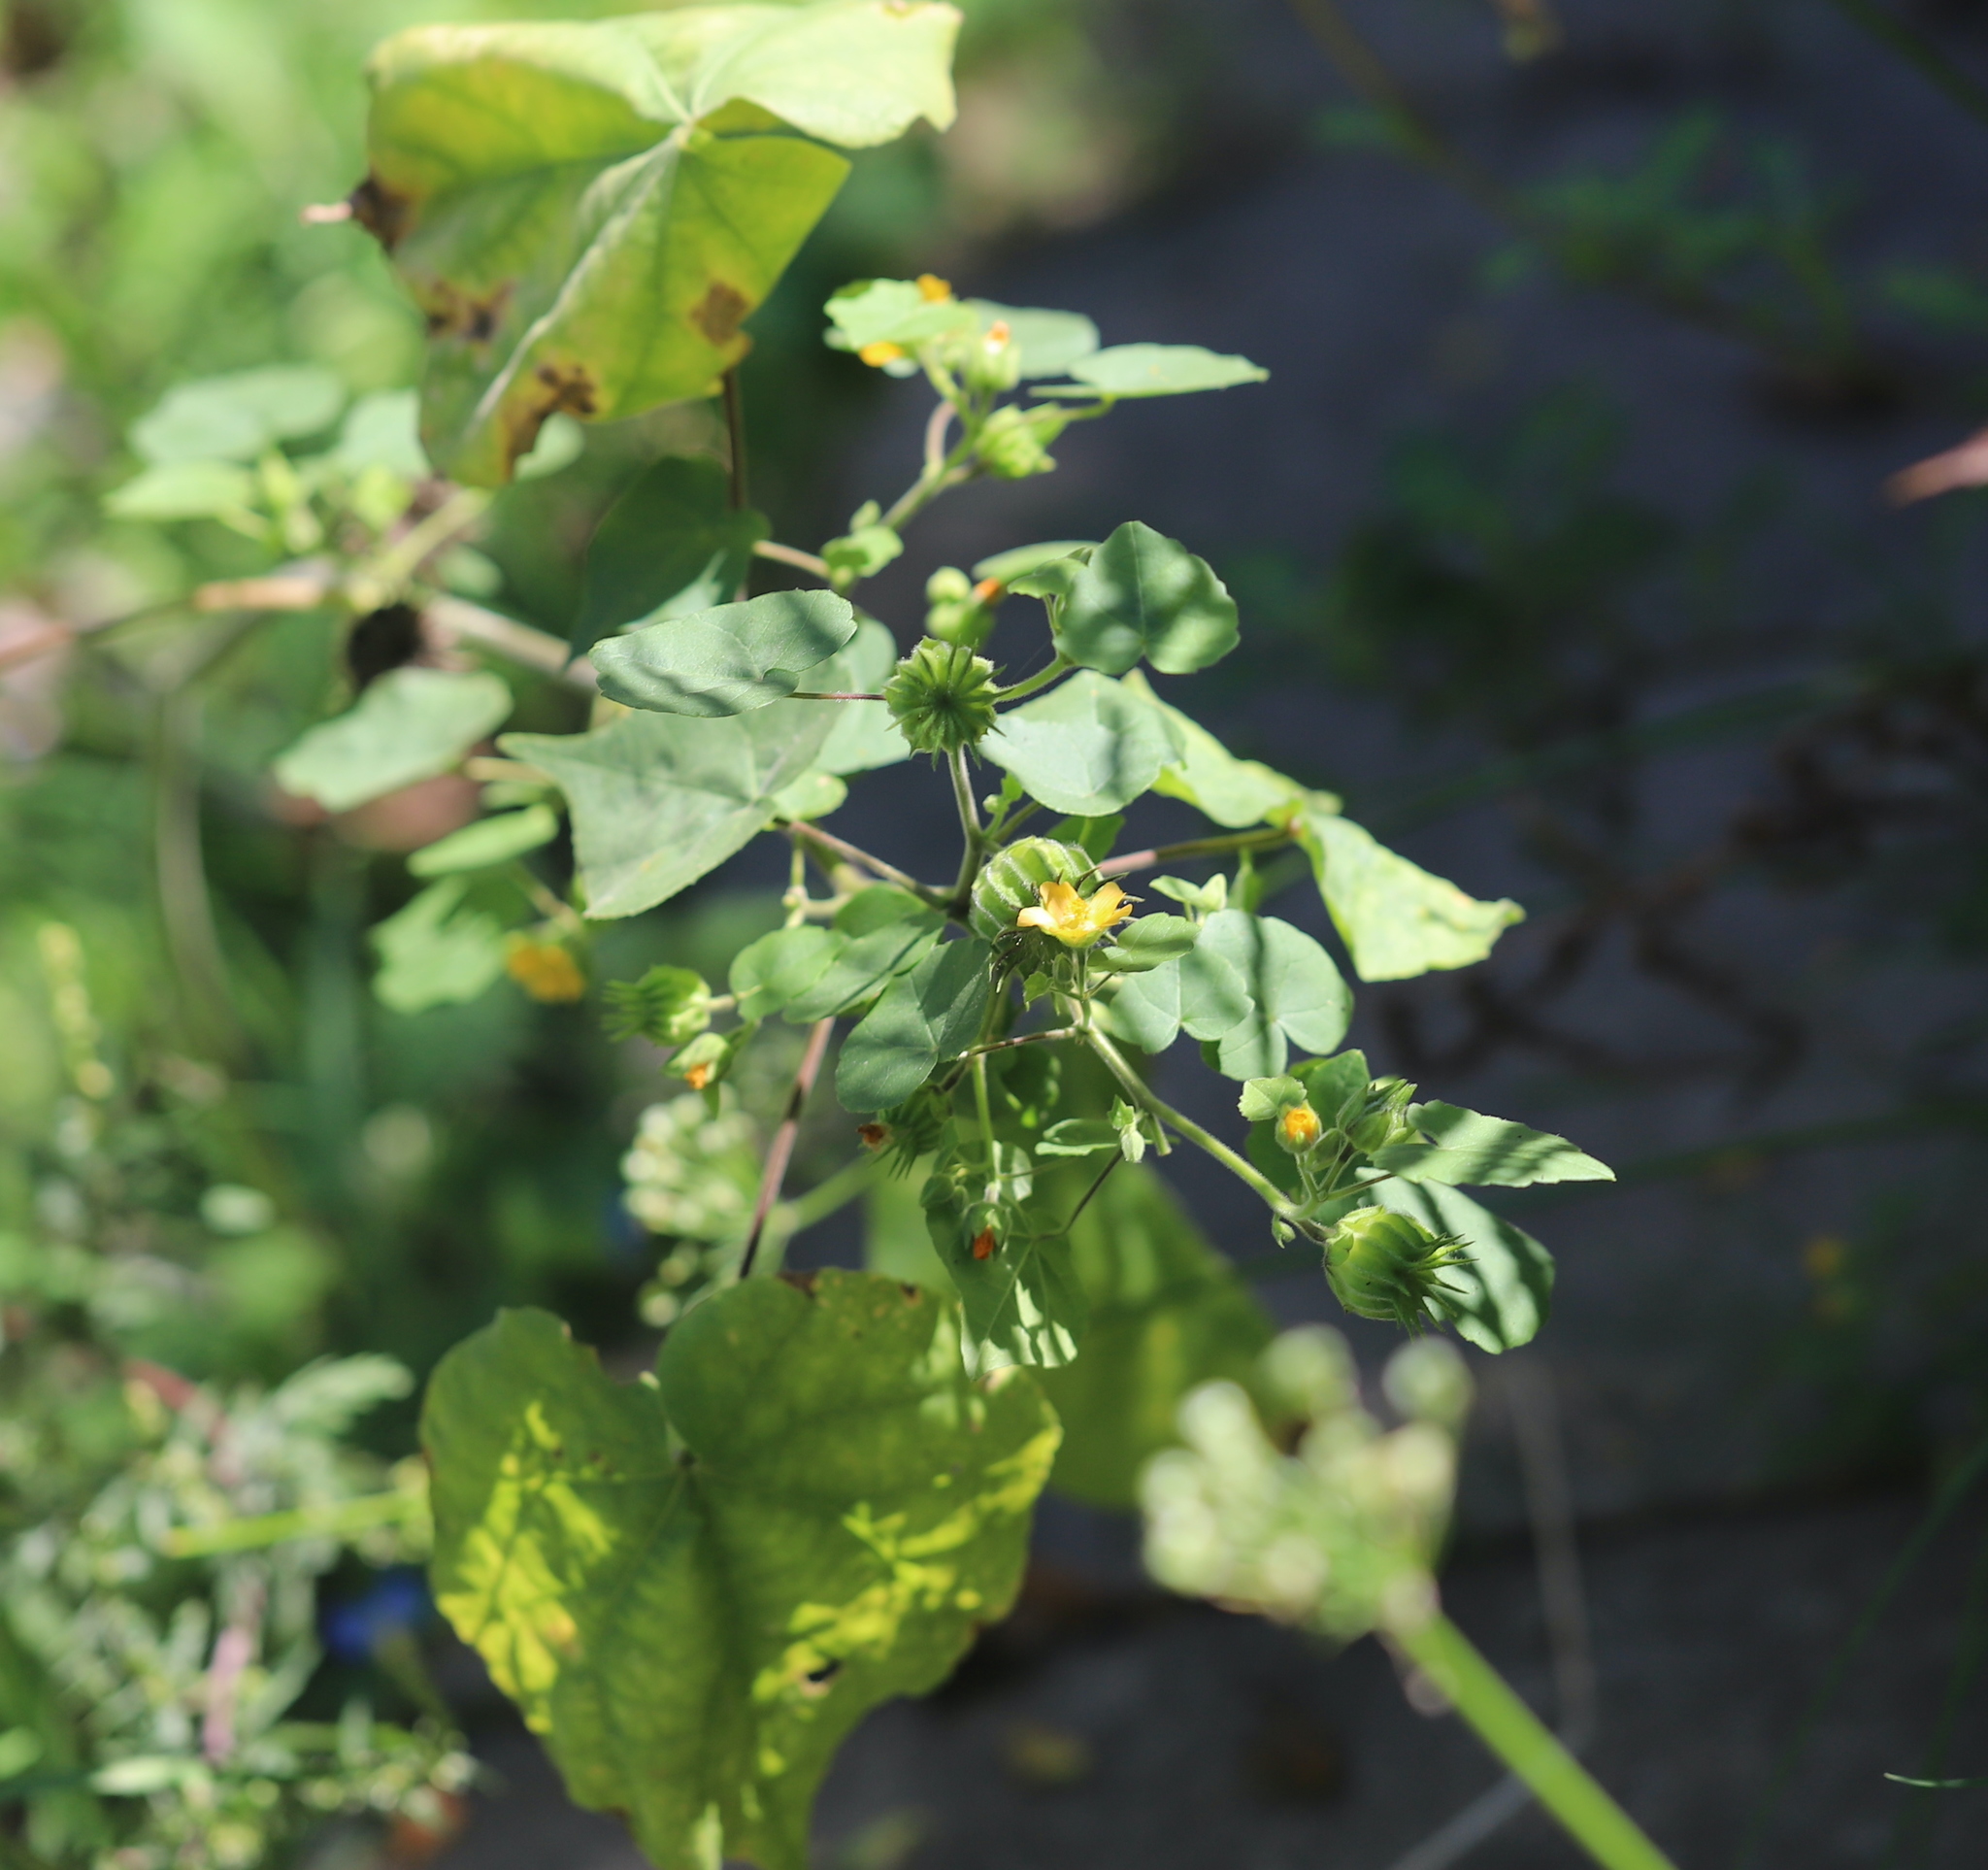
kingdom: Plantae
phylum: Tracheophyta
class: Magnoliopsida
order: Malvales
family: Malvaceae
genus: Abutilon
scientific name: Abutilon theophrasti
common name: Velvetleaf
